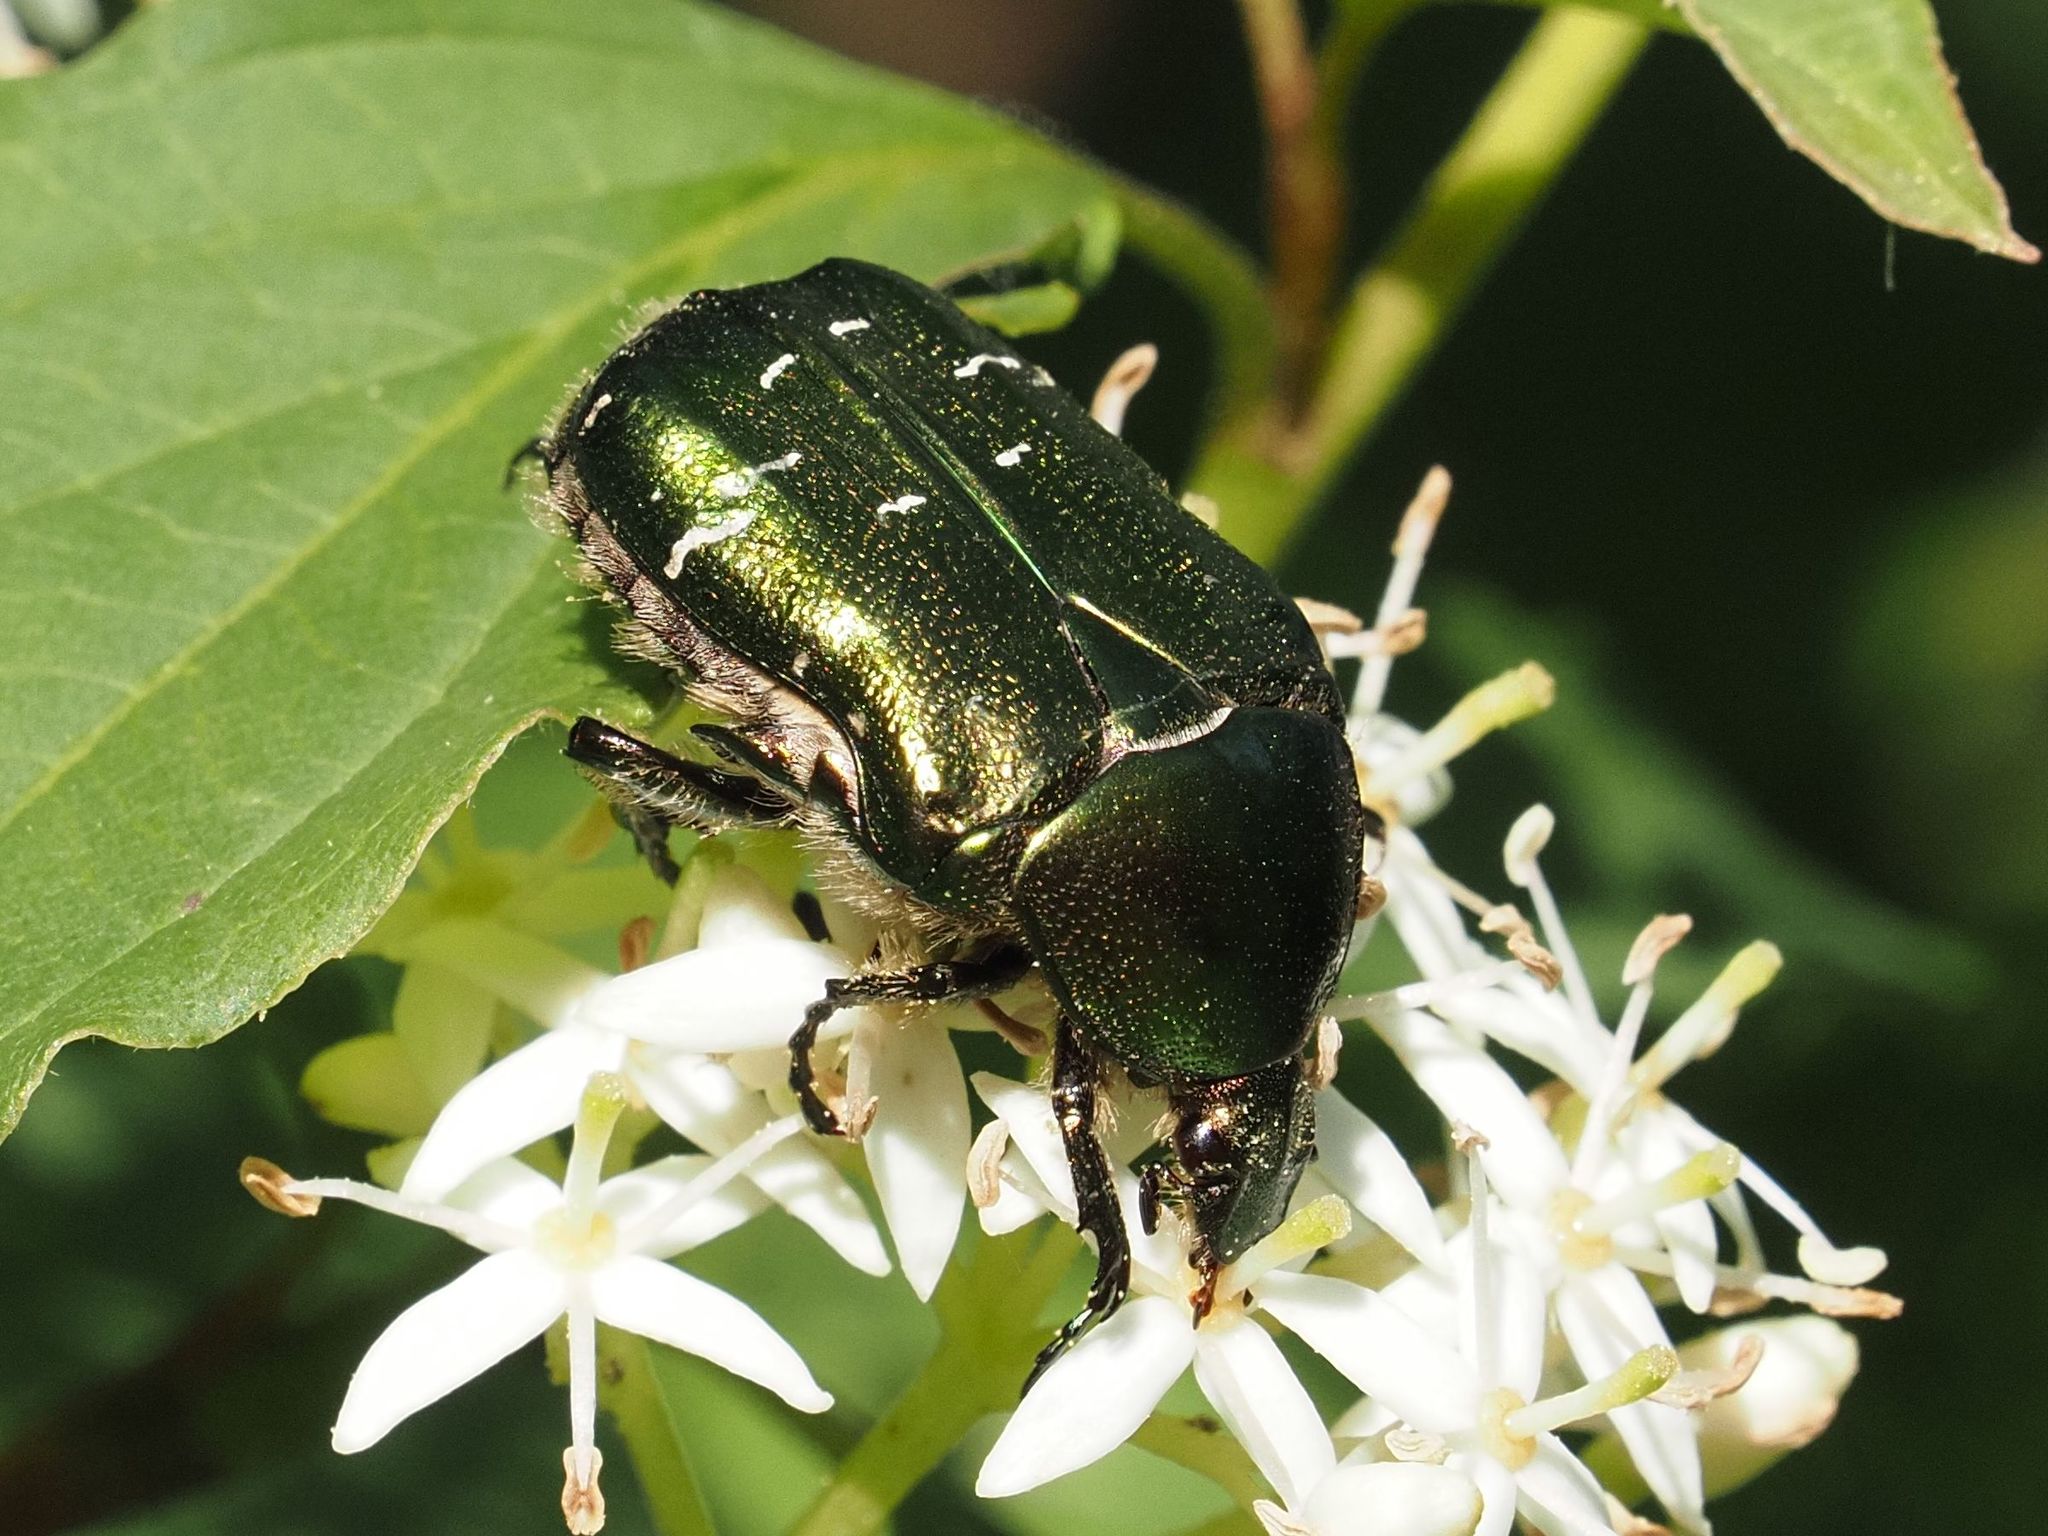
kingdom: Animalia
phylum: Arthropoda
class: Insecta
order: Coleoptera
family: Scarabaeidae
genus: Cetonia
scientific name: Cetonia aurata
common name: Rose chafer
